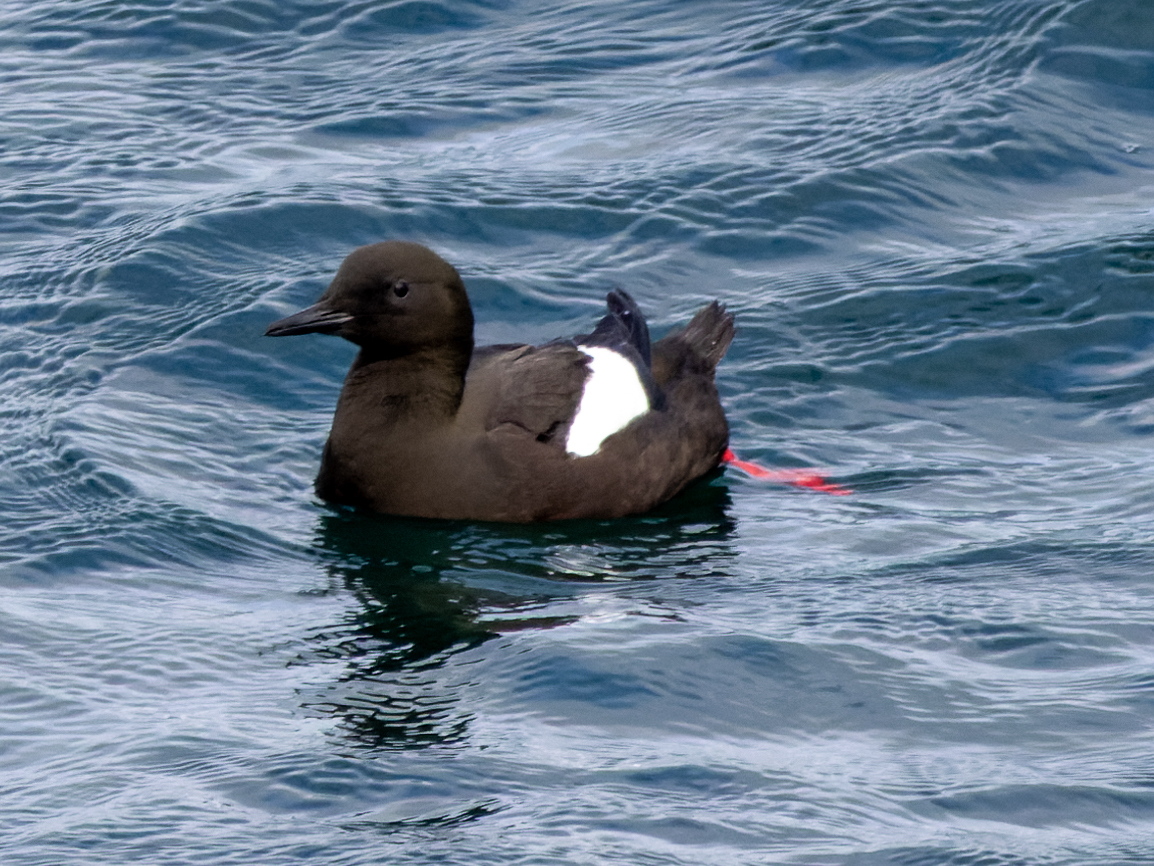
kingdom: Animalia
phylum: Chordata
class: Aves
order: Charadriiformes
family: Alcidae
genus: Cepphus
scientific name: Cepphus grylle
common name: Black guillemot
